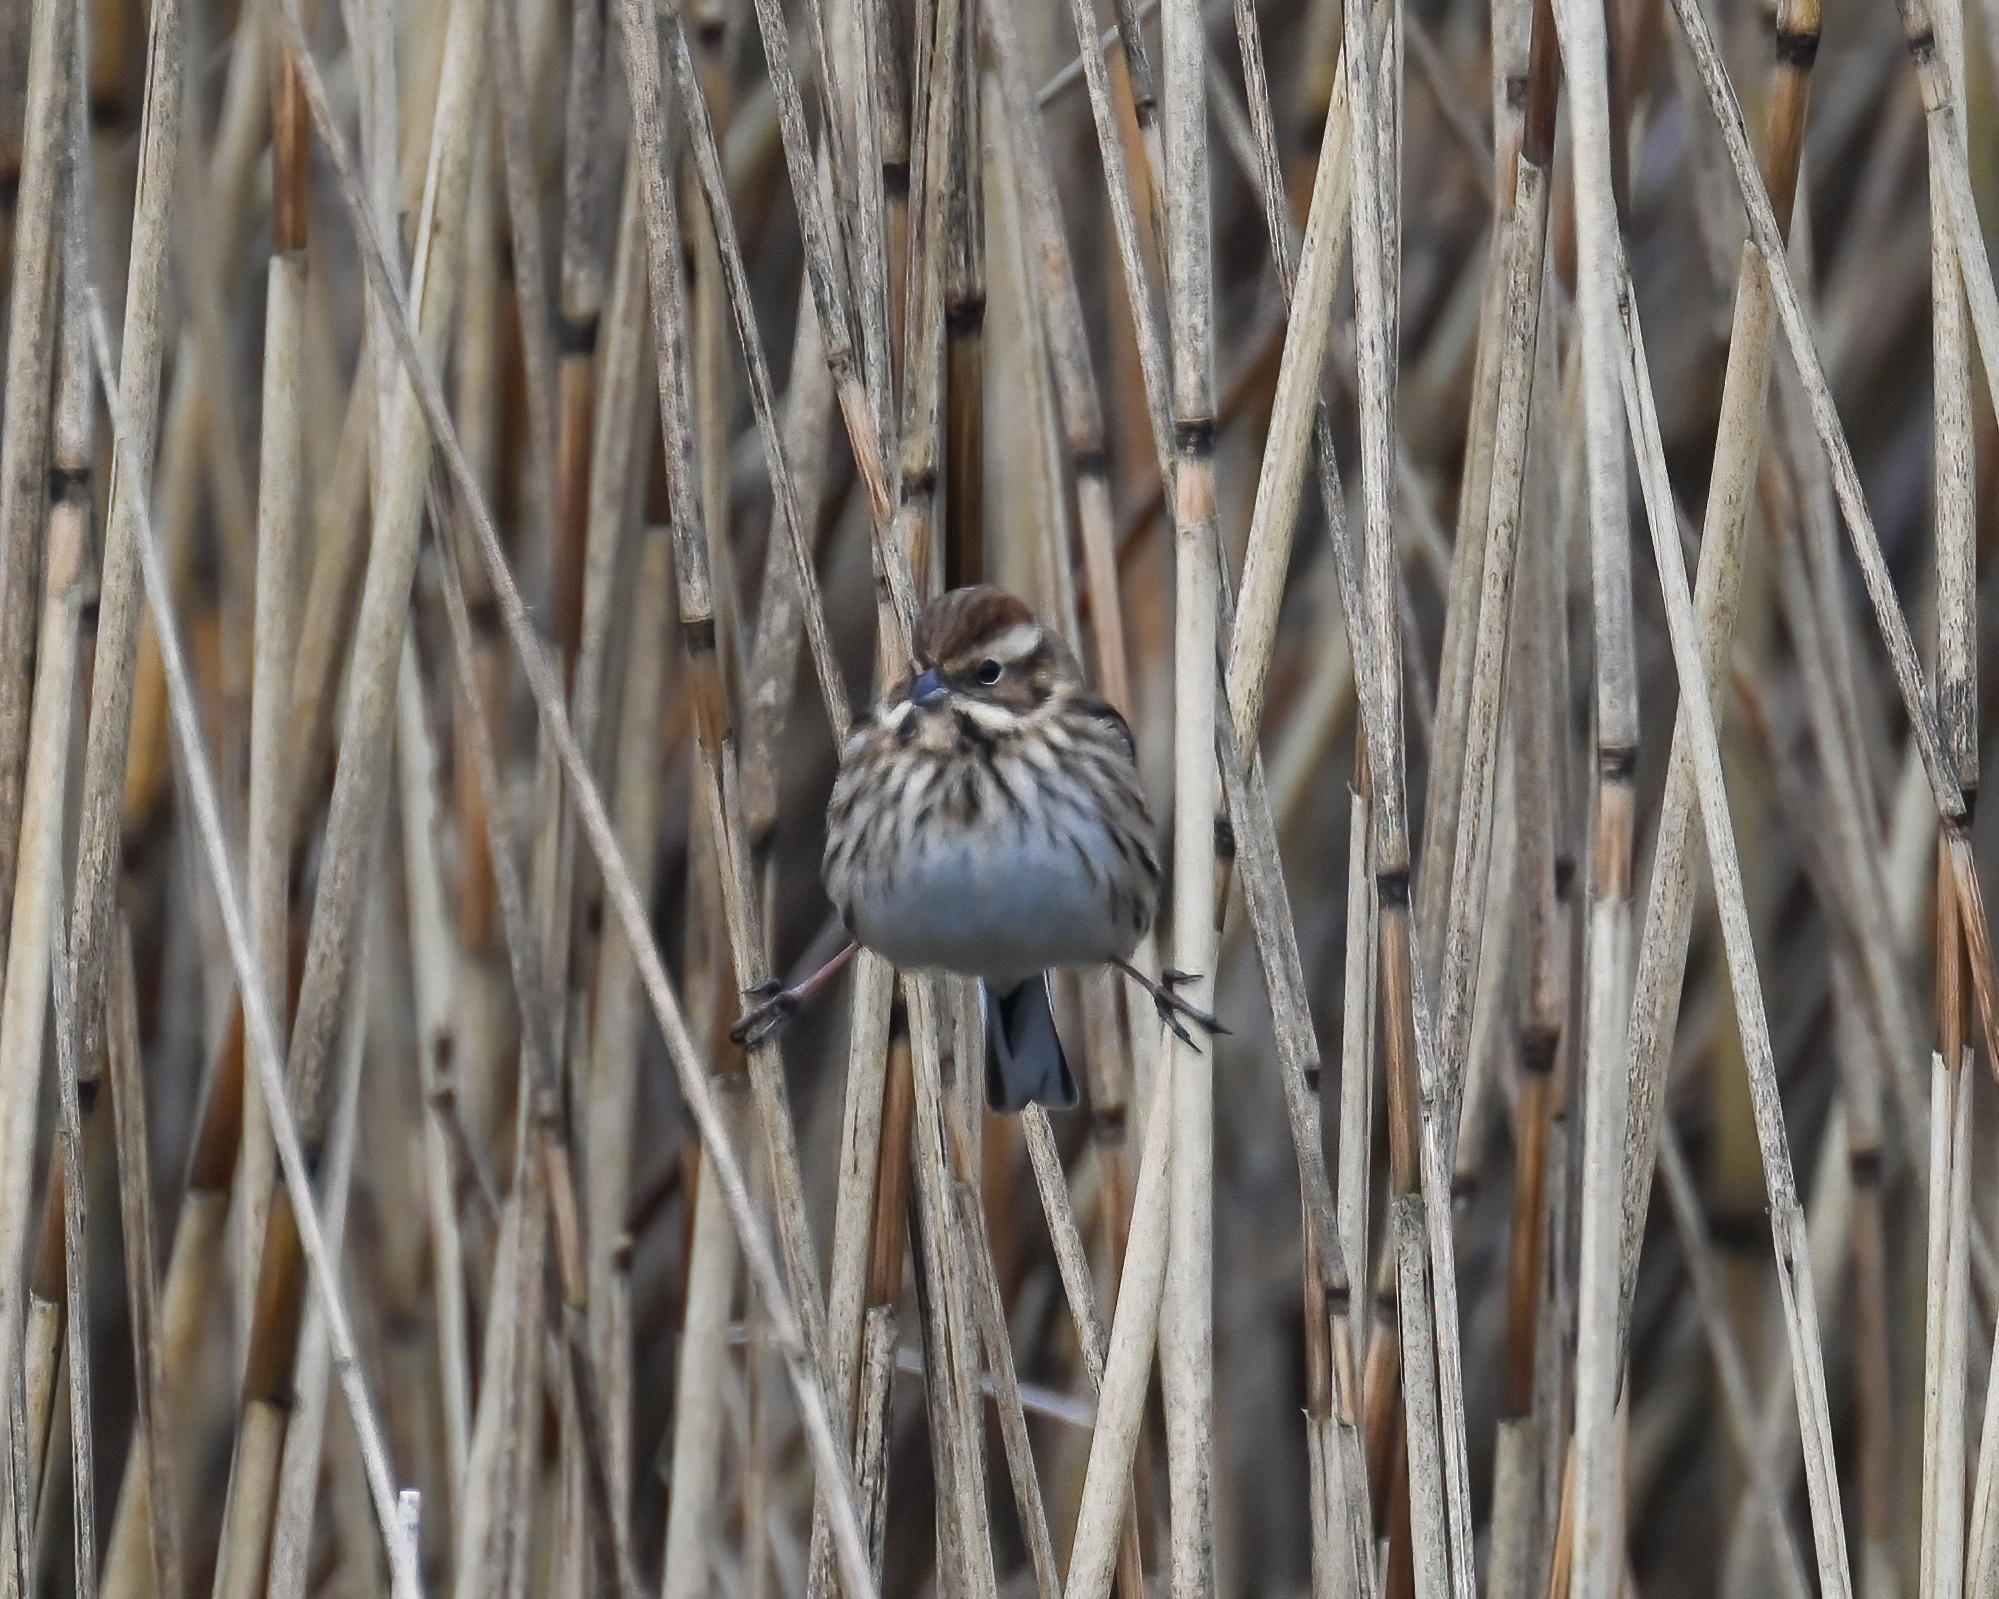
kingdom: Animalia
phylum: Chordata
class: Aves
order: Passeriformes
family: Emberizidae
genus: Emberiza
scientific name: Emberiza schoeniclus
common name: Reed bunting
